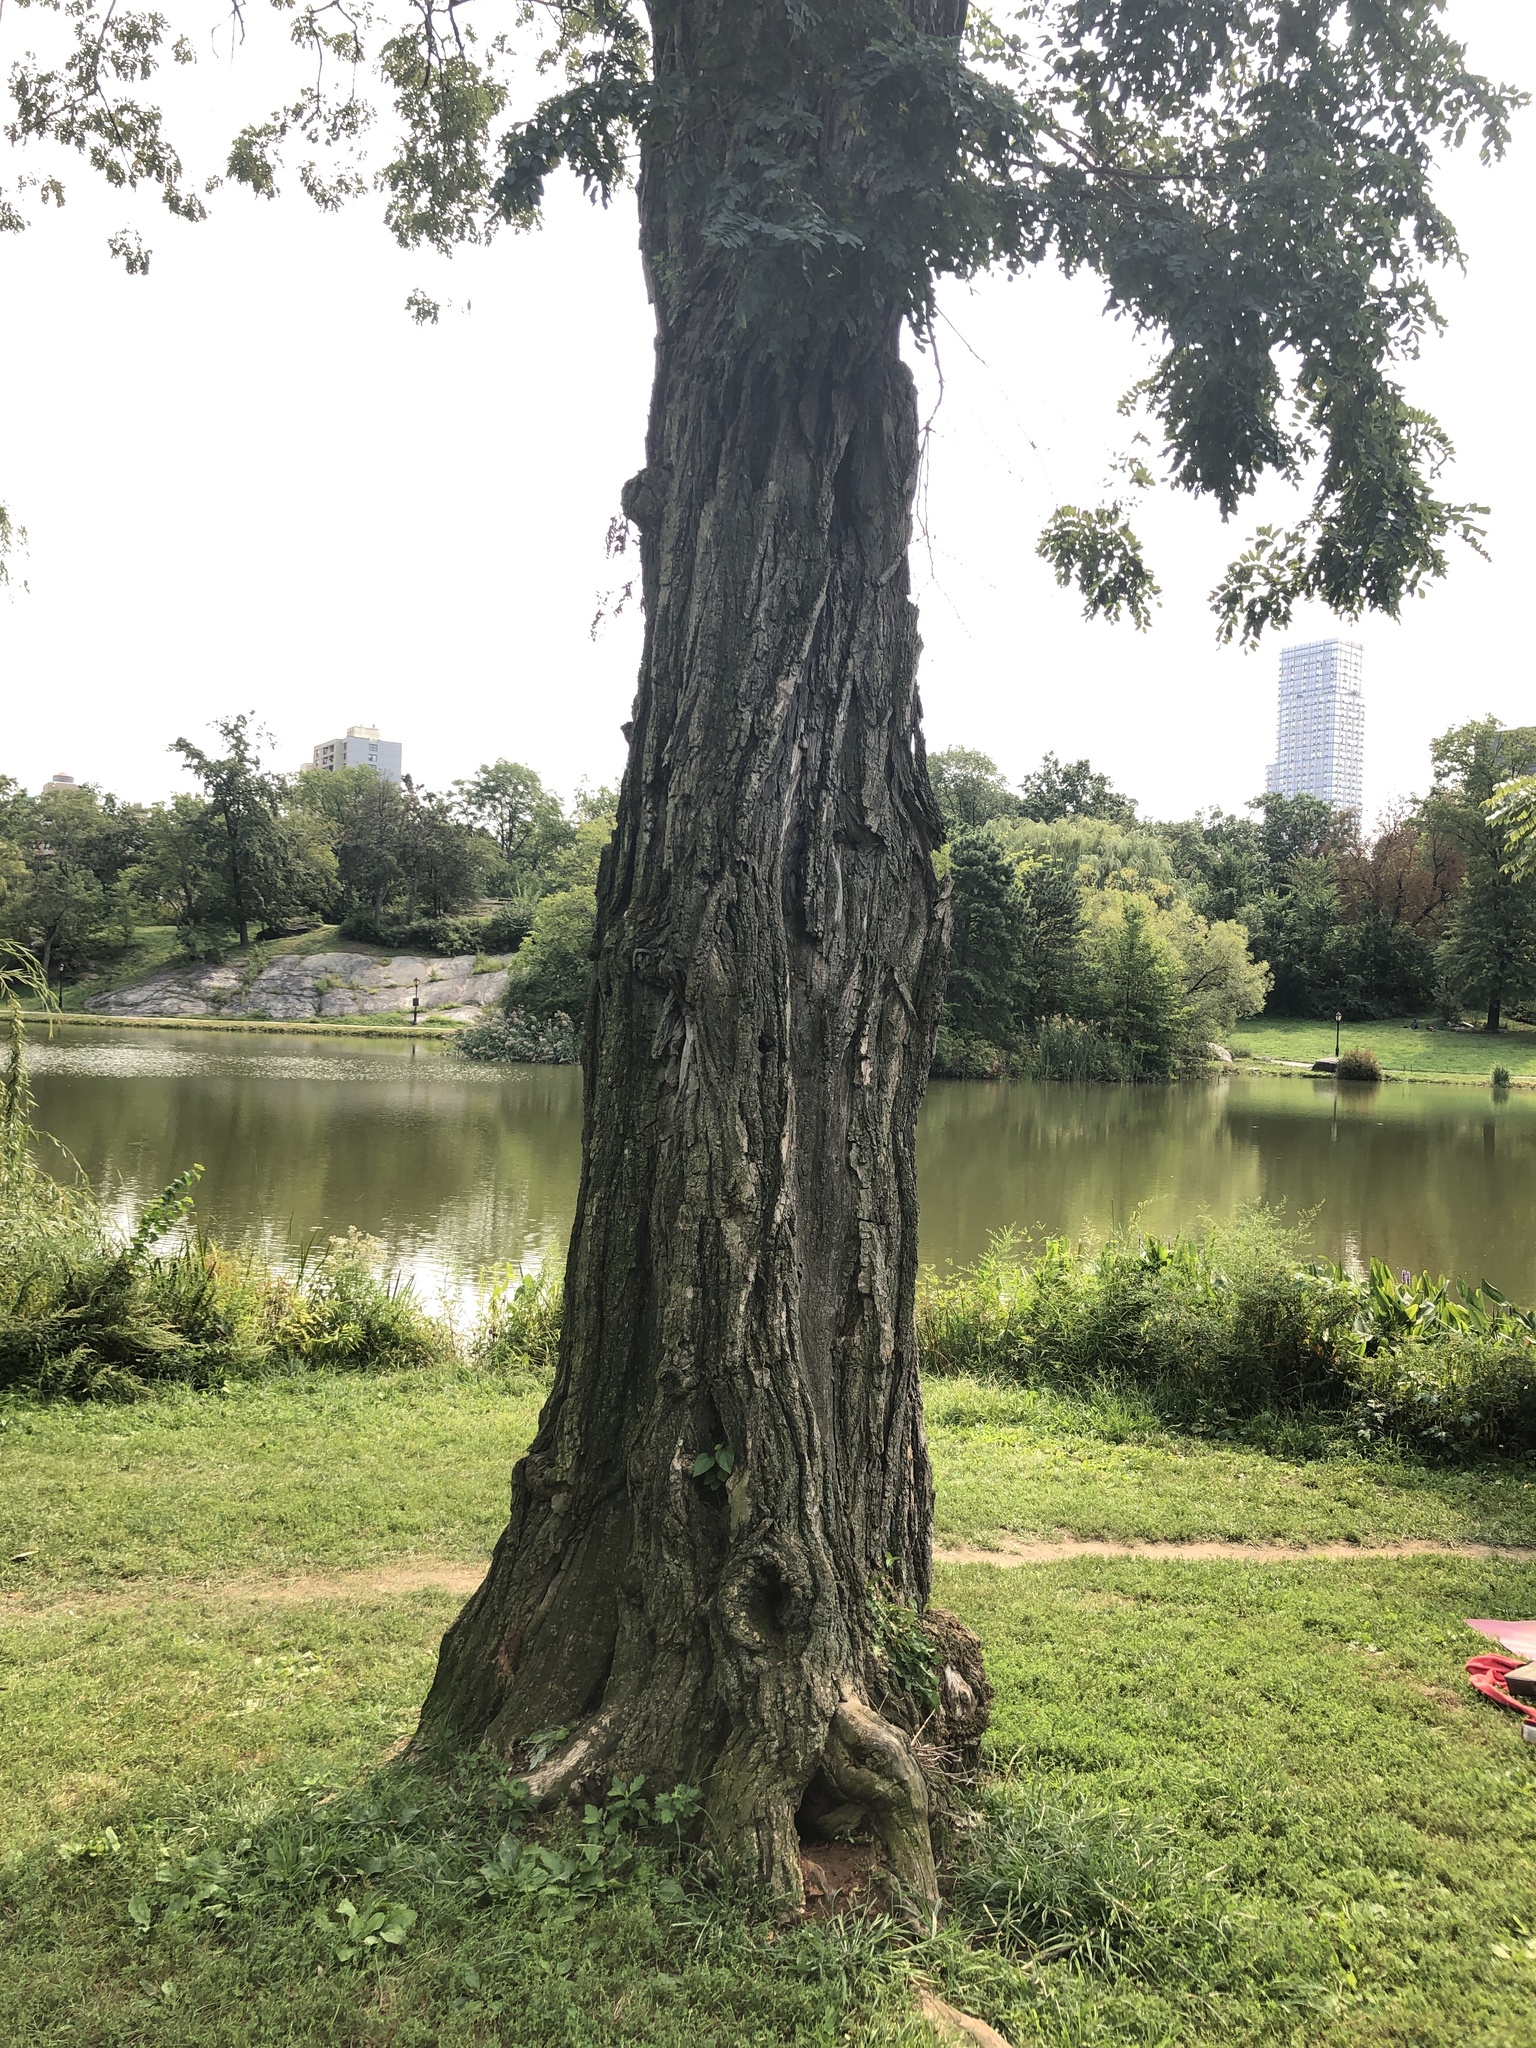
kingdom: Plantae
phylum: Tracheophyta
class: Magnoliopsida
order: Fabales
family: Fabaceae
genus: Robinia
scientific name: Robinia pseudoacacia
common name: Black locust
